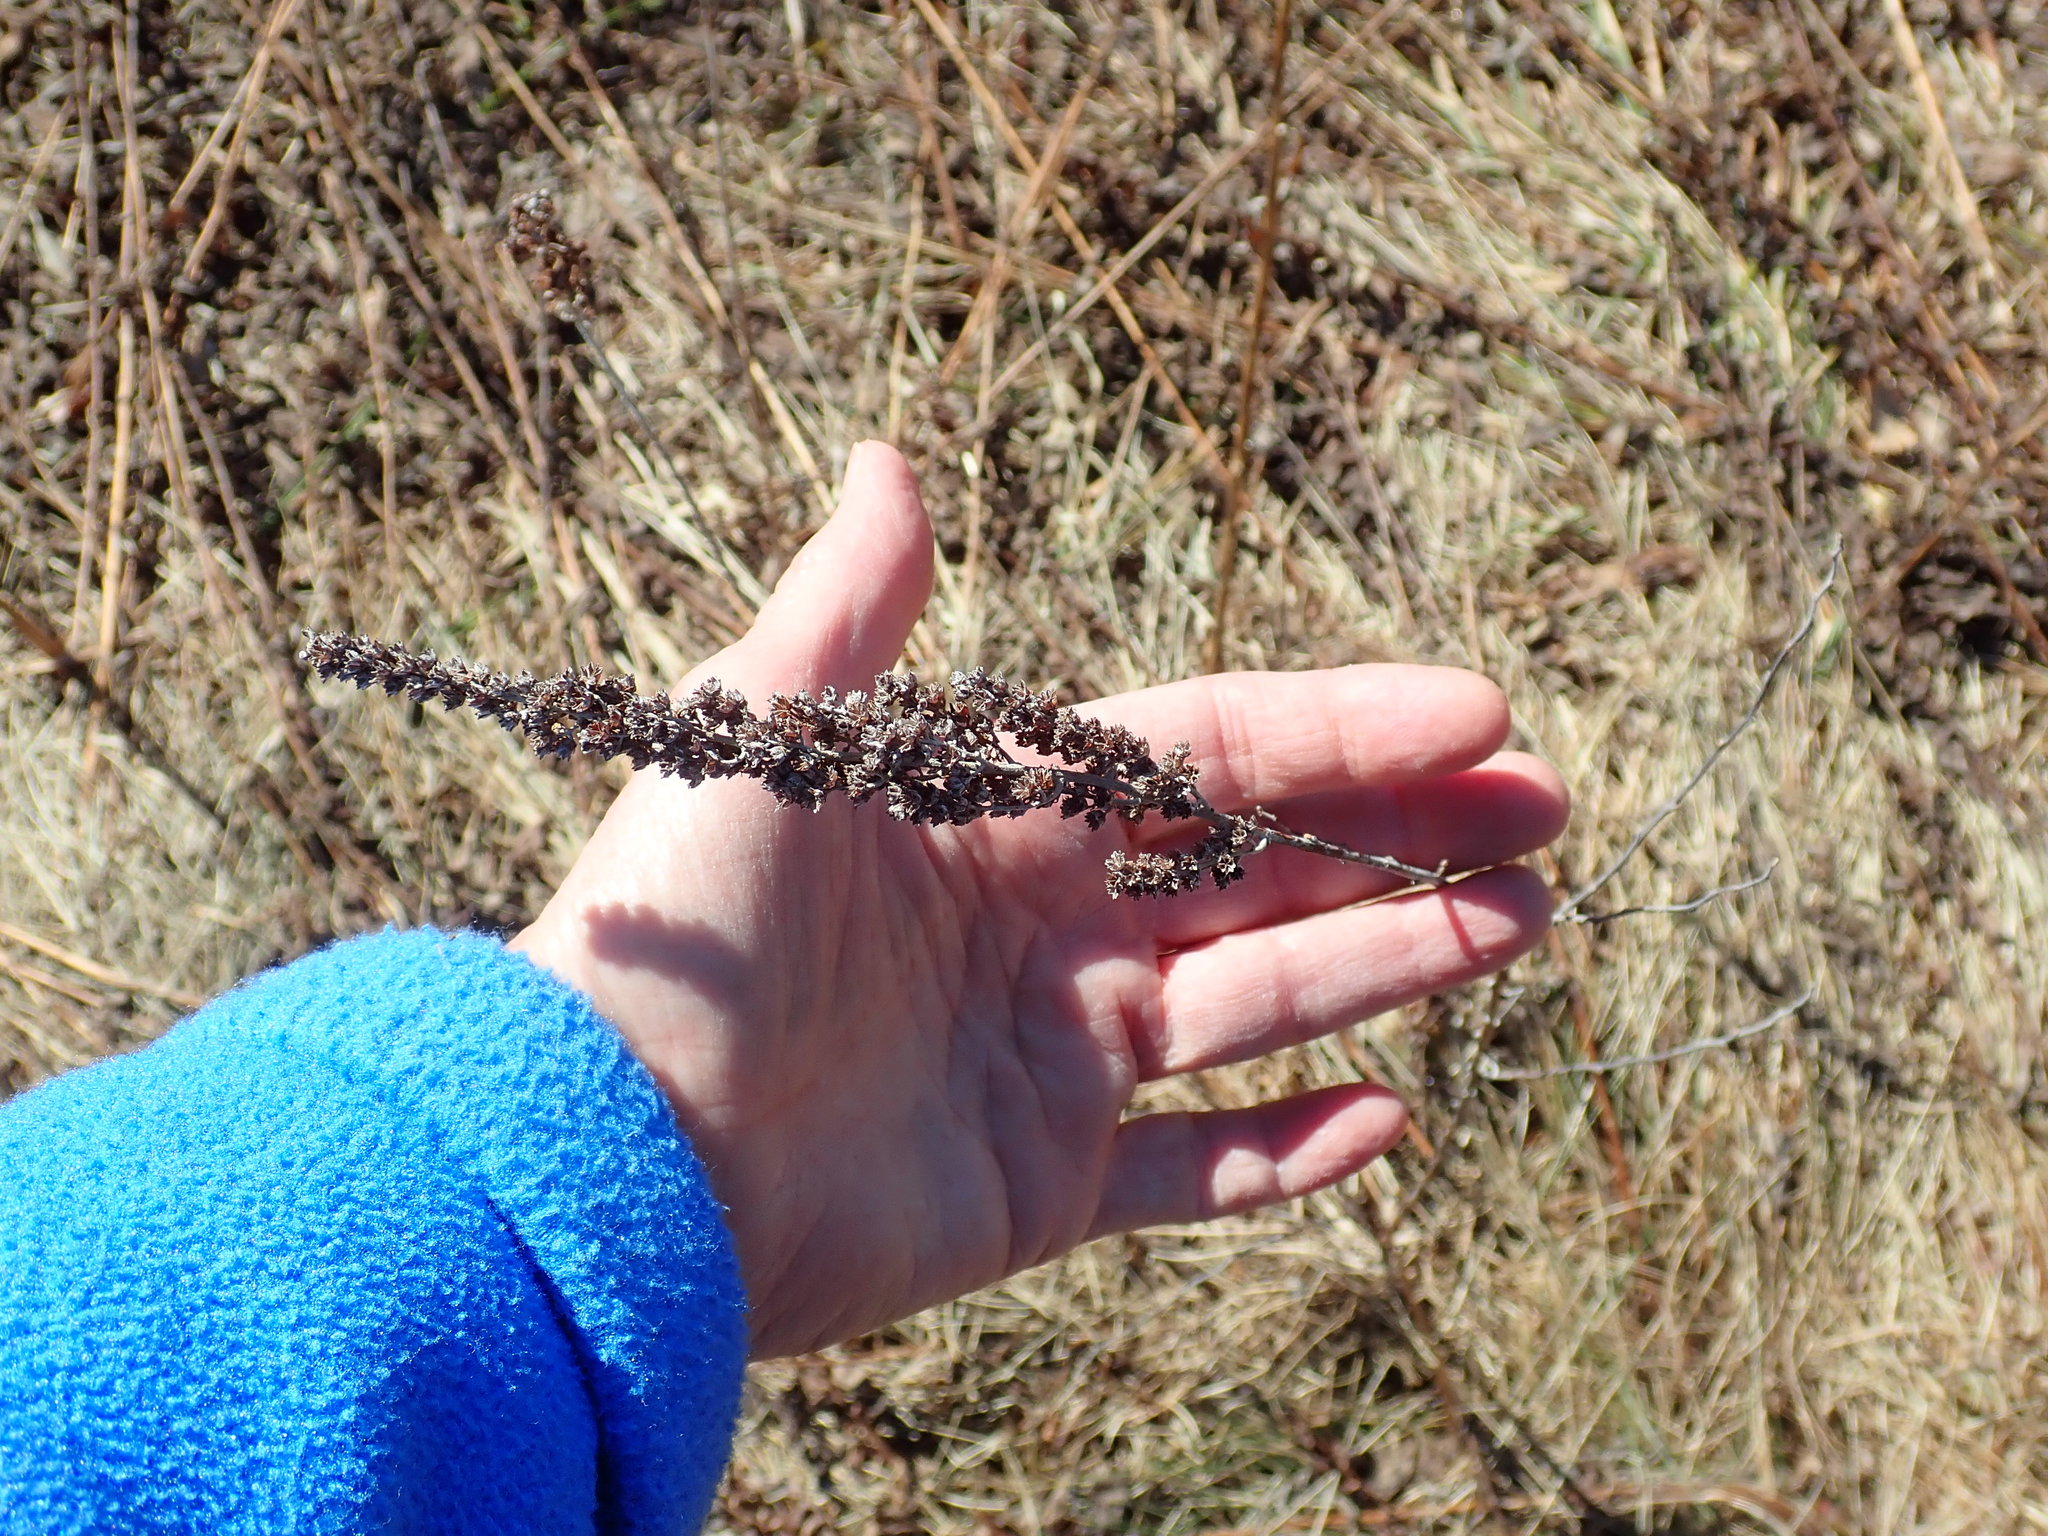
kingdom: Plantae
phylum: Tracheophyta
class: Magnoliopsida
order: Rosales
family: Rosaceae
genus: Spiraea
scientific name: Spiraea tomentosa
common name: Hardhack
